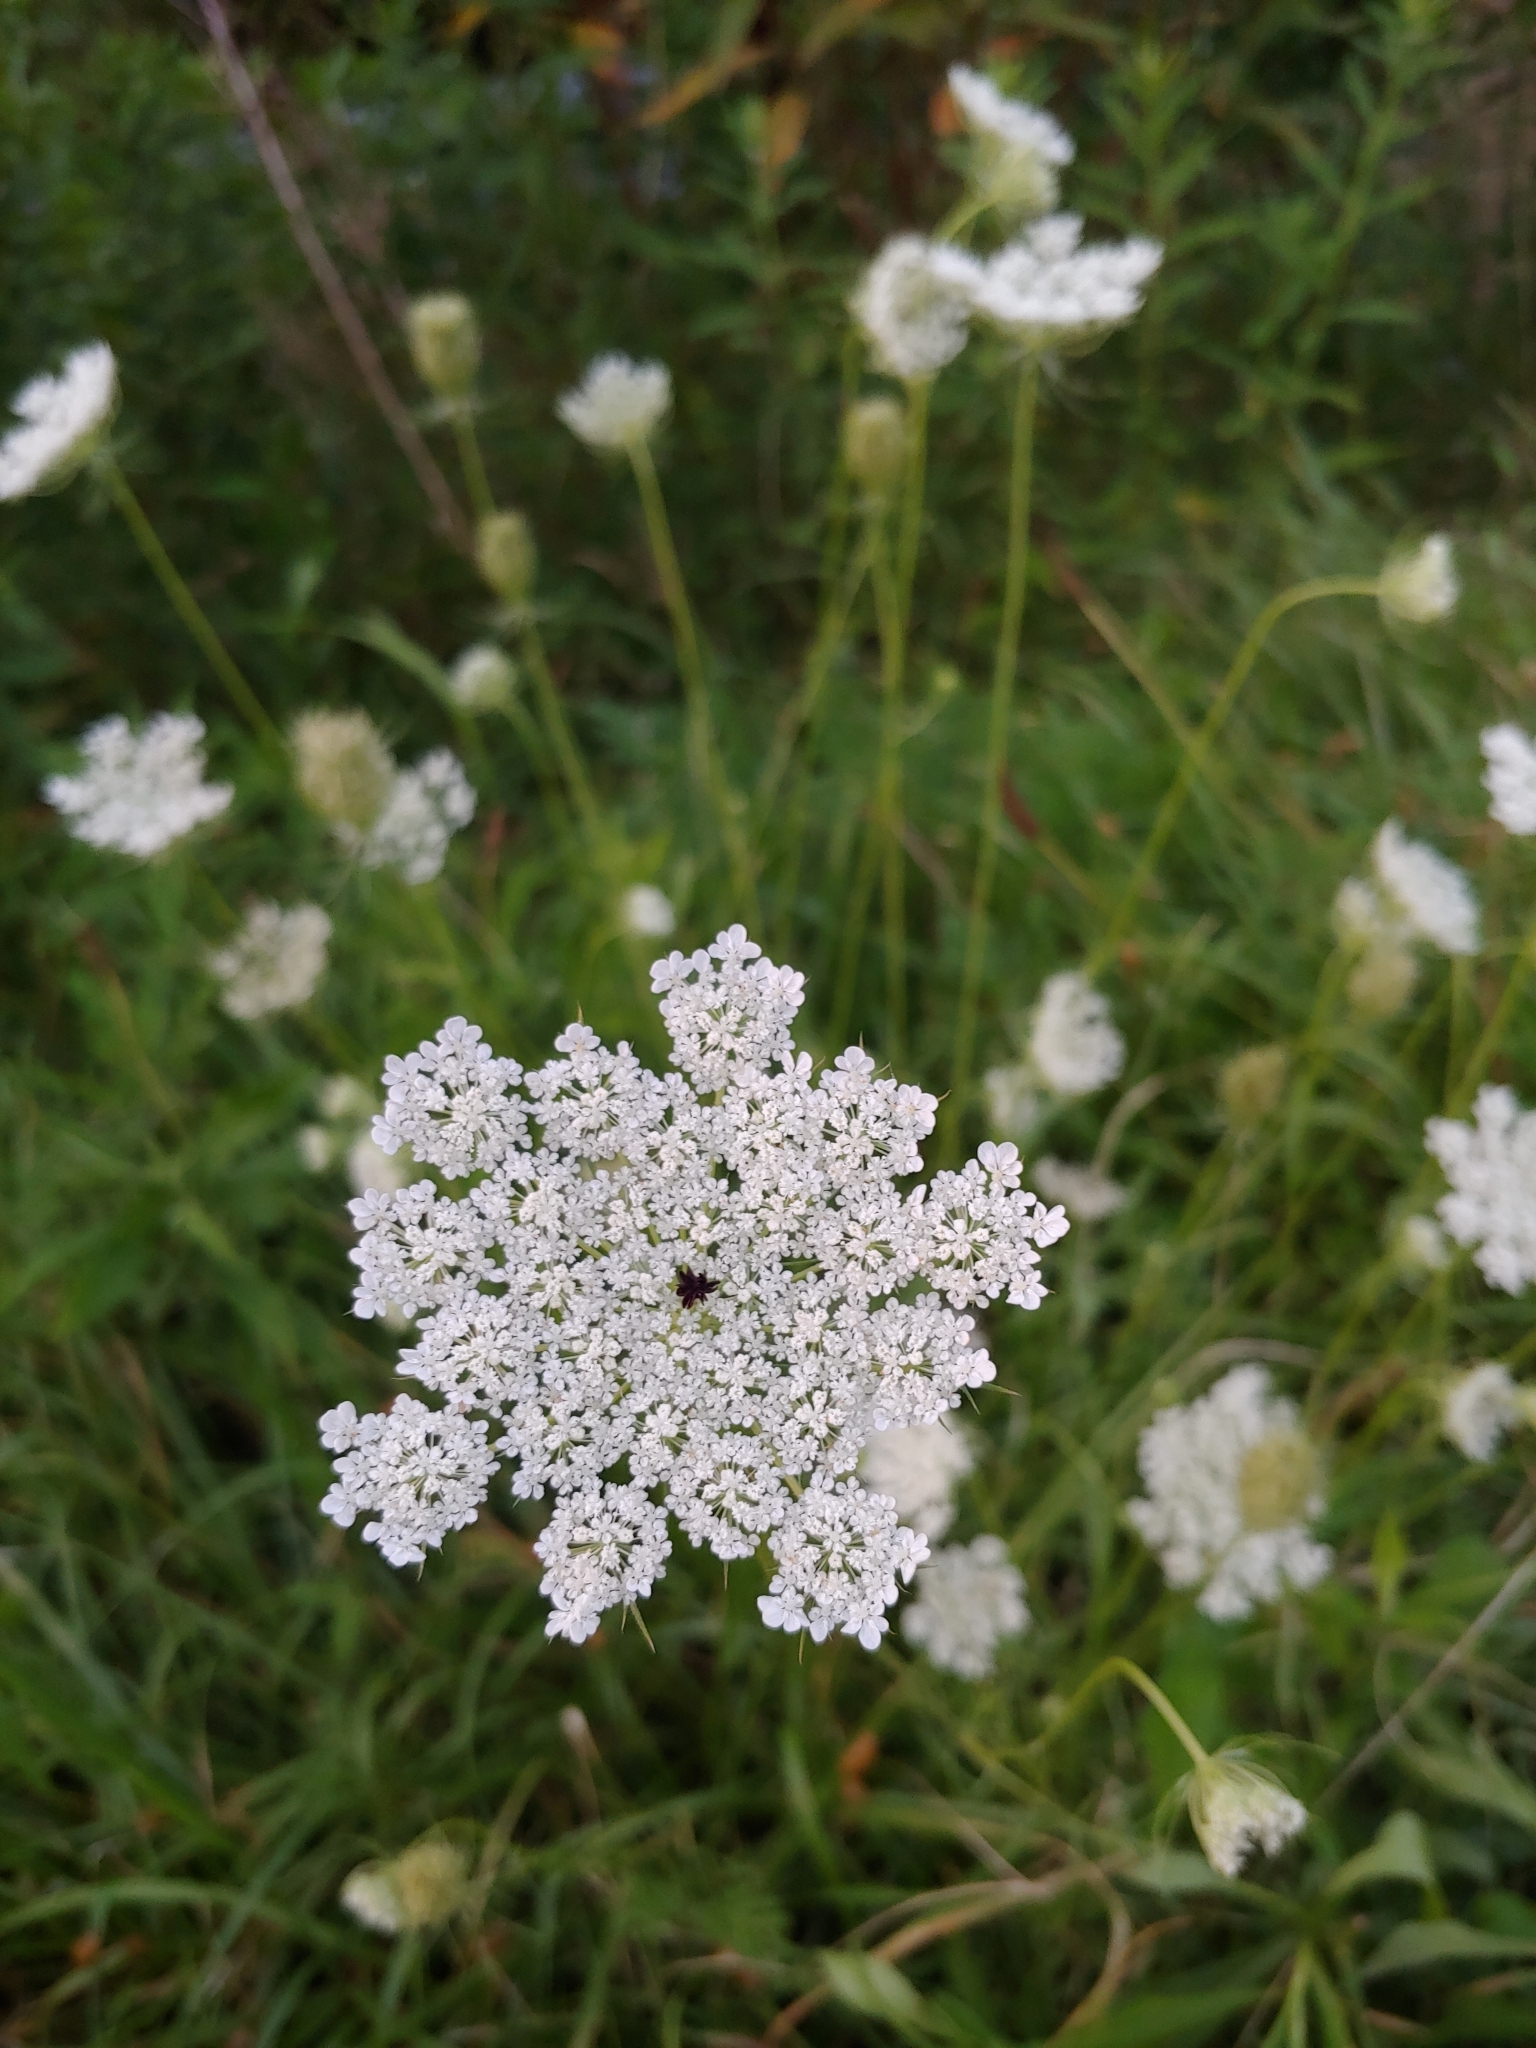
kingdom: Plantae
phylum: Tracheophyta
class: Magnoliopsida
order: Apiales
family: Apiaceae
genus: Daucus
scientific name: Daucus carota
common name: Wild carrot
